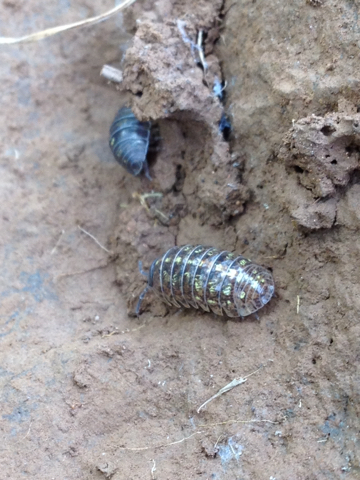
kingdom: Animalia
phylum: Arthropoda
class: Malacostraca
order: Isopoda
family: Armadillidiidae
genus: Armadillidium
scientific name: Armadillidium vulgare
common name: Common pill woodlouse
